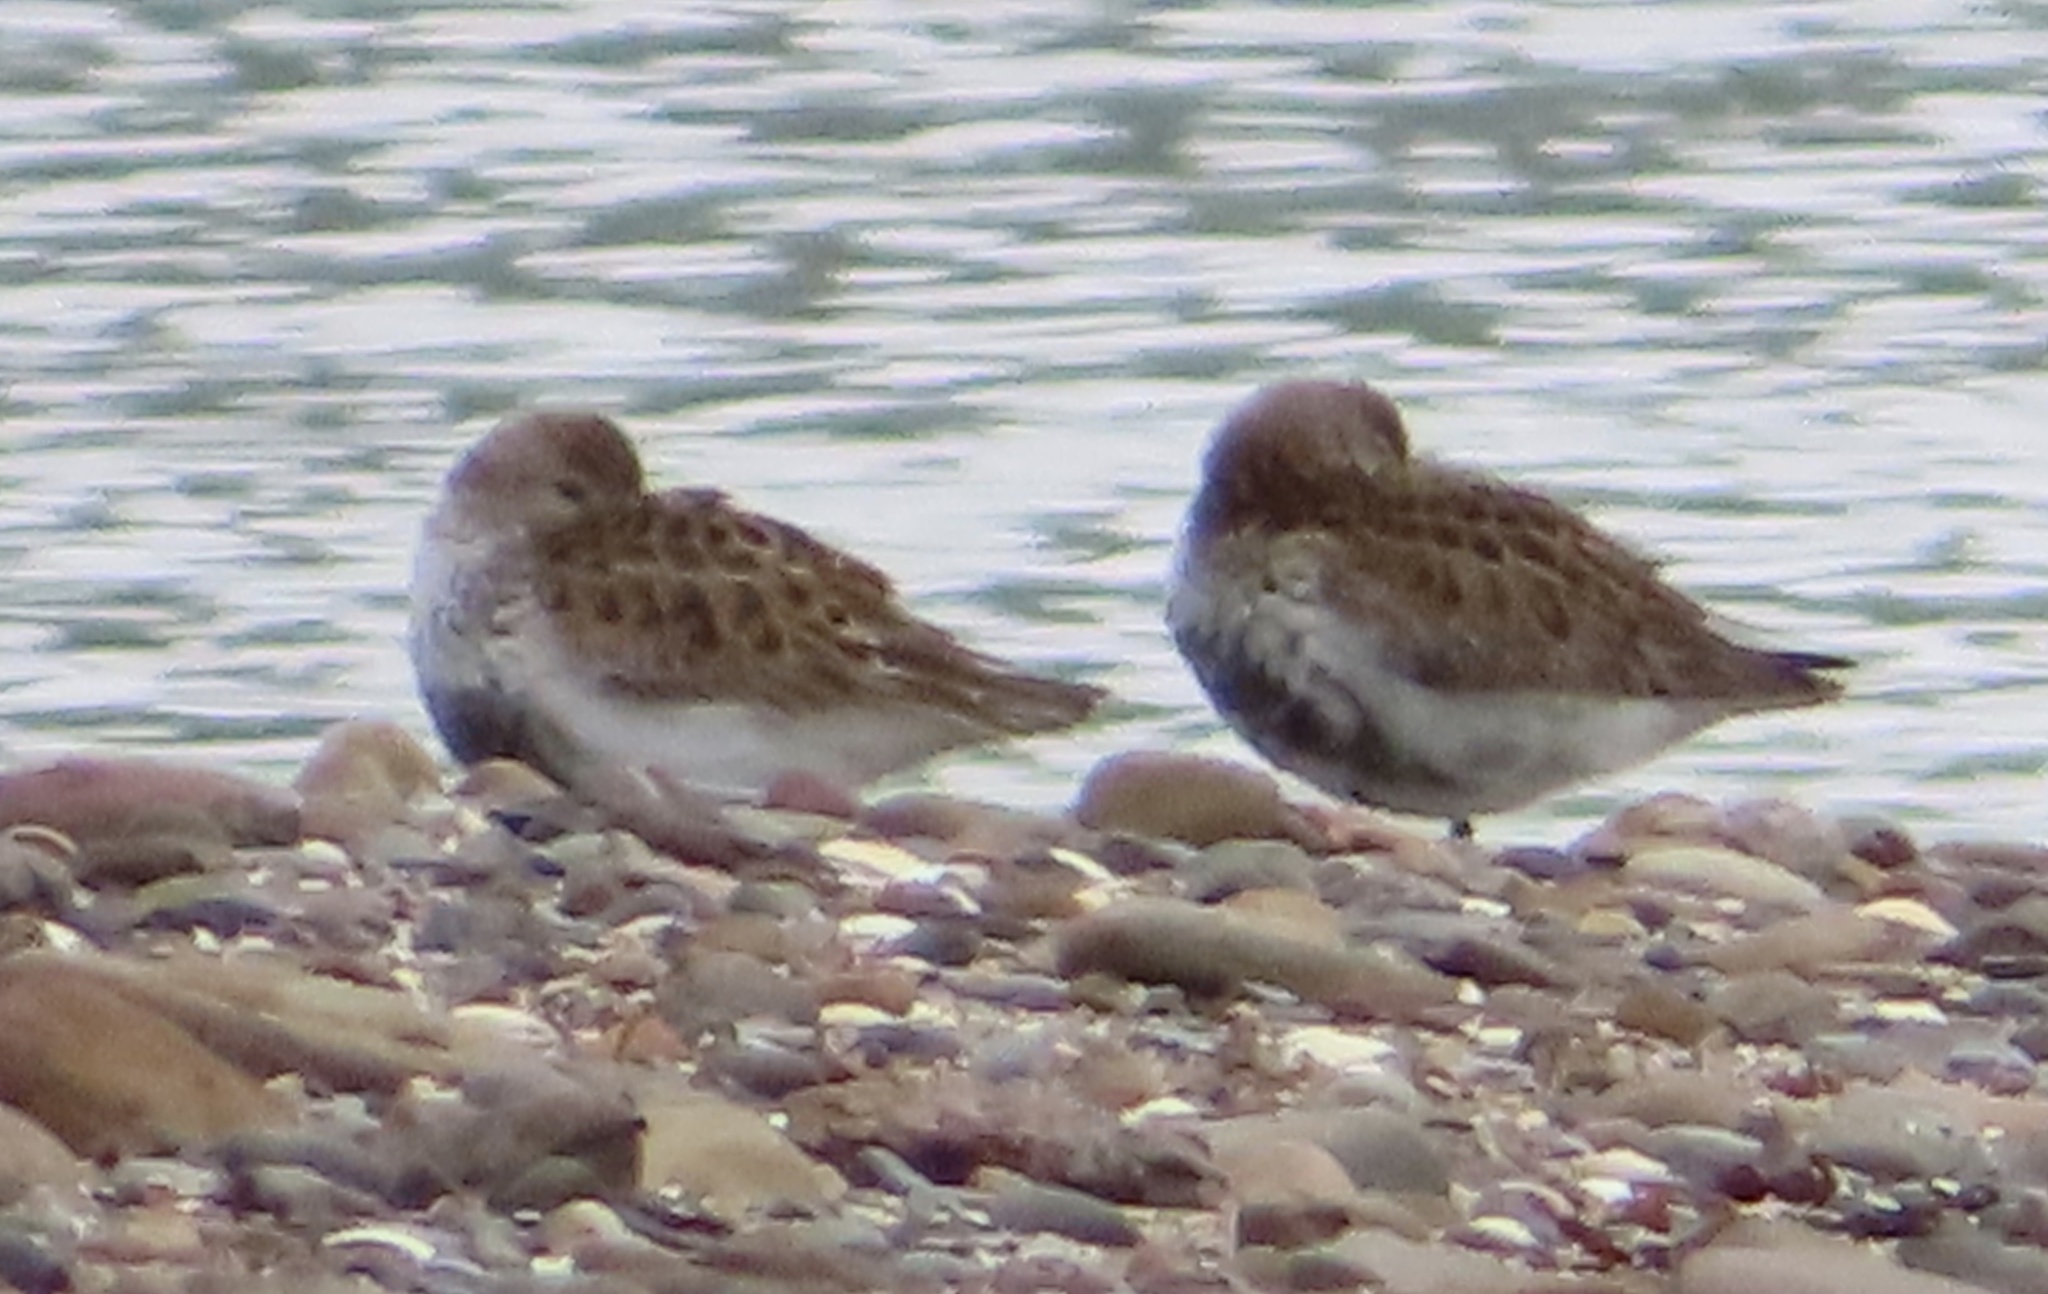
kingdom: Animalia
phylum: Chordata
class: Aves
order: Charadriiformes
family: Scolopacidae
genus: Calidris
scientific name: Calidris alpina
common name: Dunlin
